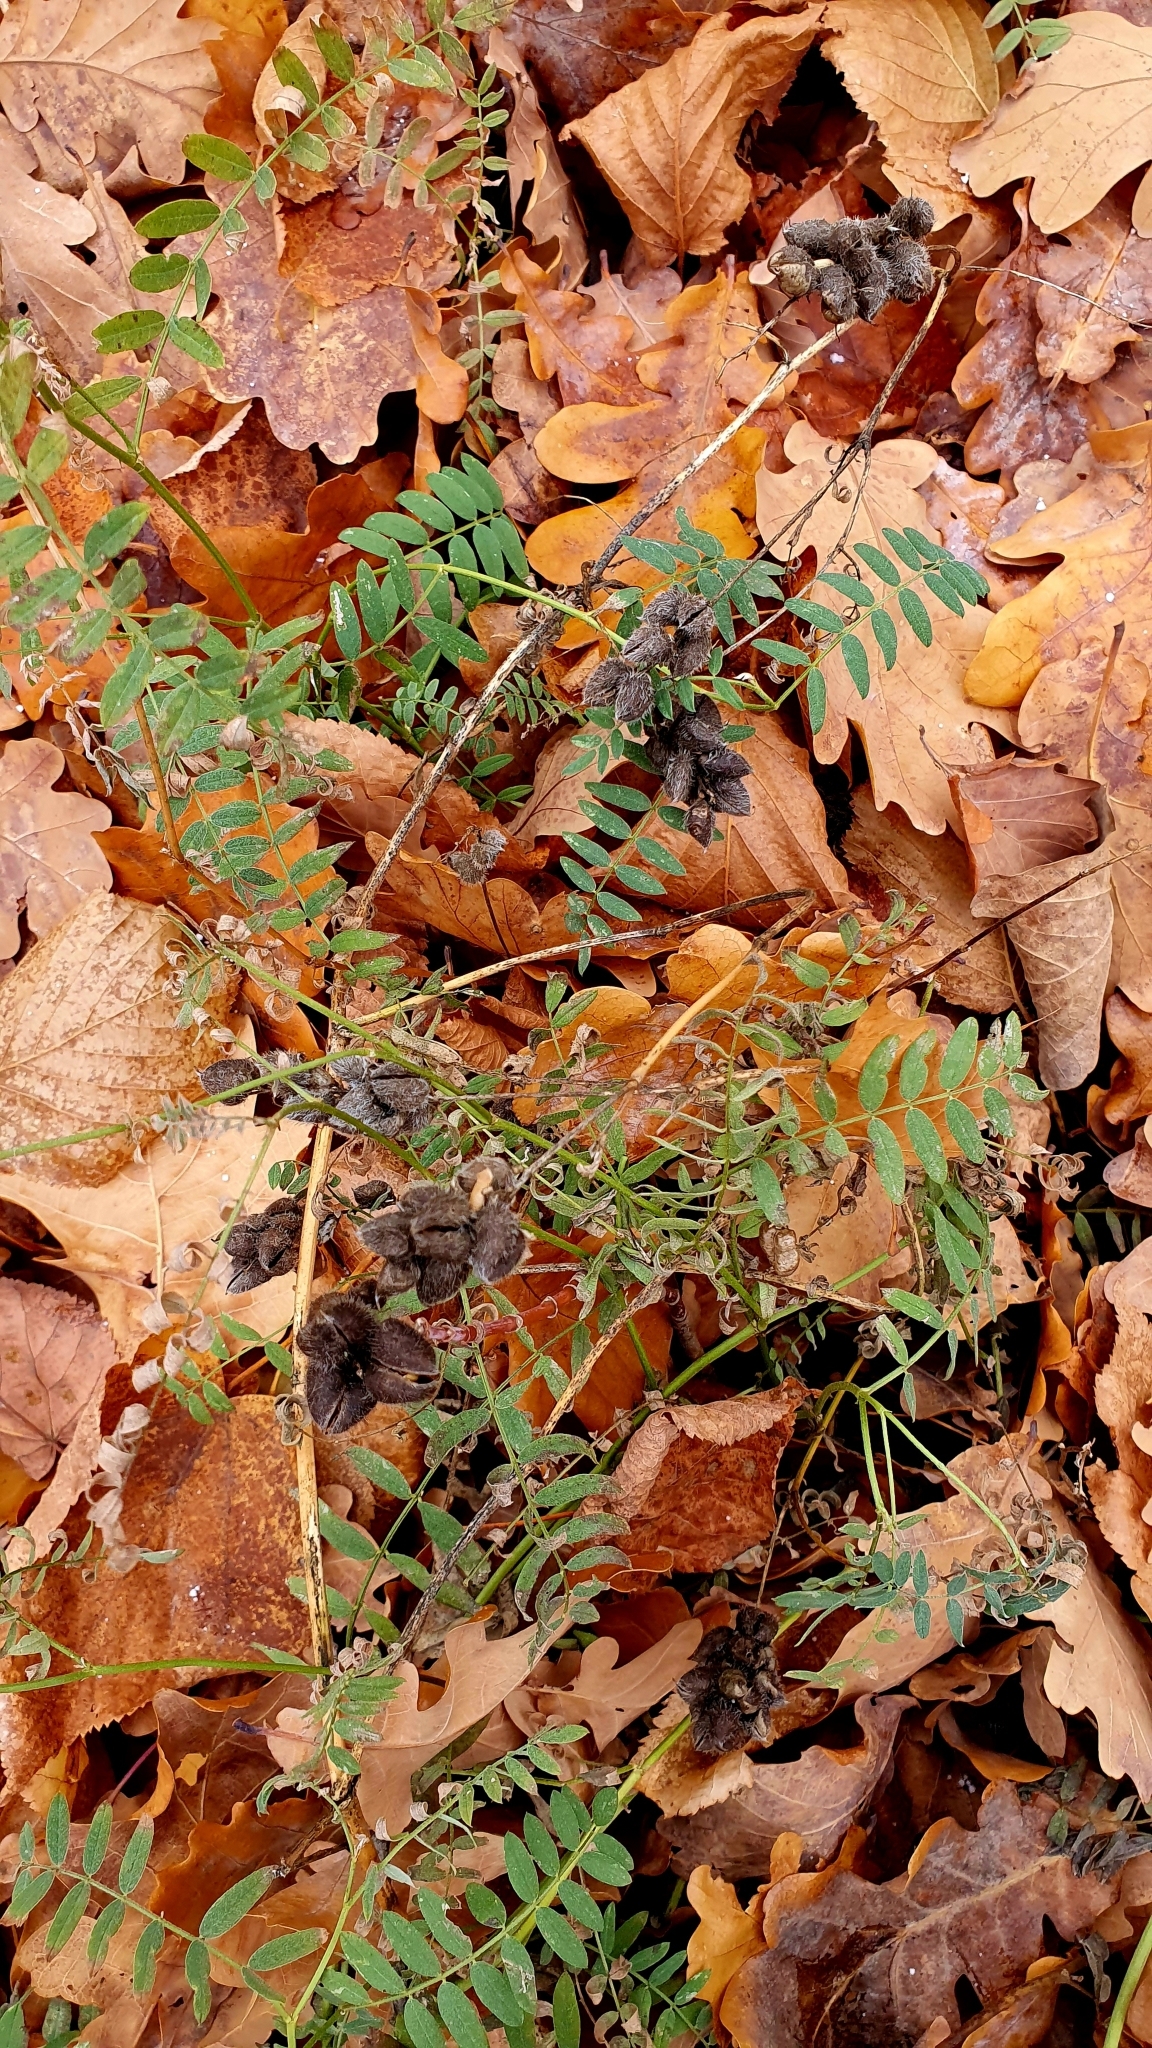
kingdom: Plantae
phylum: Tracheophyta
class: Magnoliopsida
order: Fabales
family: Fabaceae
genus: Astragalus
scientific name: Astragalus cicer
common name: Chick-pea milk-vetch
